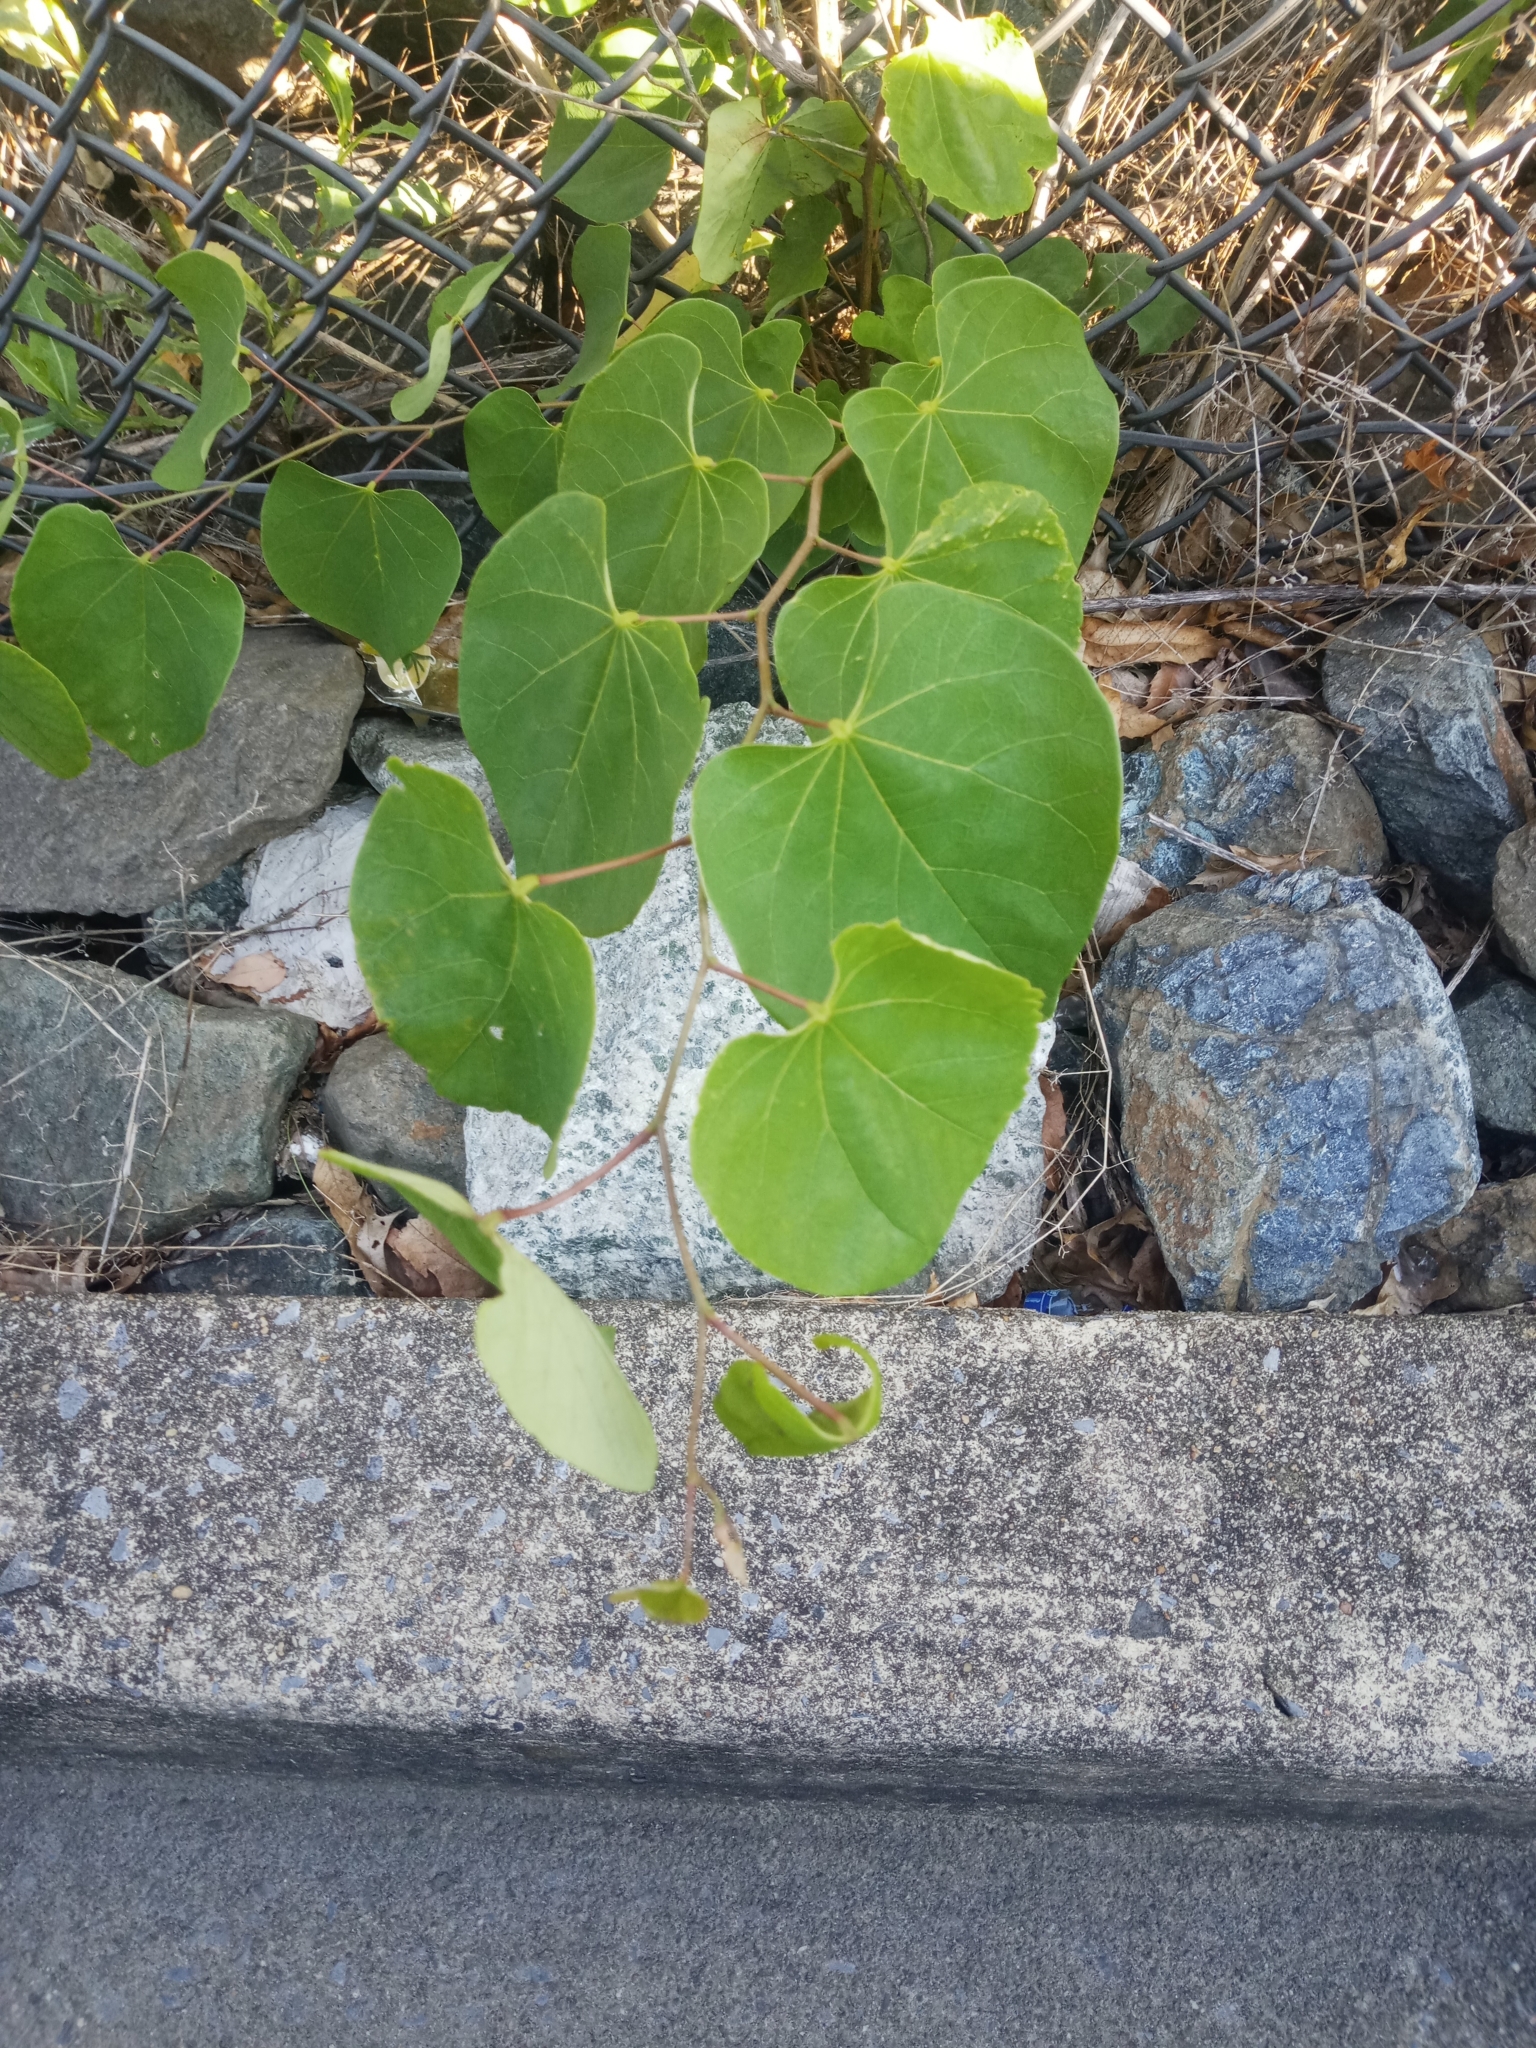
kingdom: Plantae
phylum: Tracheophyta
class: Magnoliopsida
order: Fabales
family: Fabaceae
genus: Cercis
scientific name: Cercis canadensis
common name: Eastern redbud
